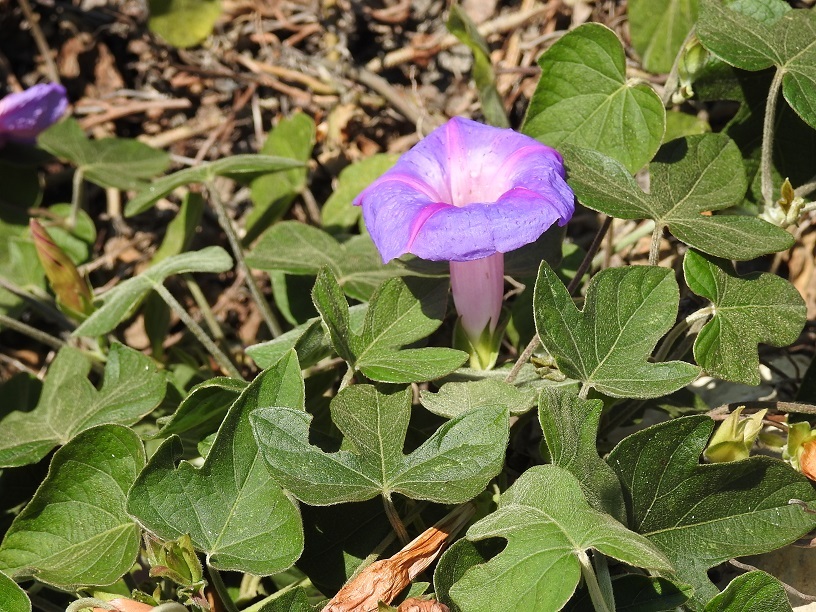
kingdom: Plantae
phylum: Tracheophyta
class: Magnoliopsida
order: Solanales
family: Convolvulaceae
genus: Ipomoea
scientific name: Ipomoea indica
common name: Blue dawnflower
